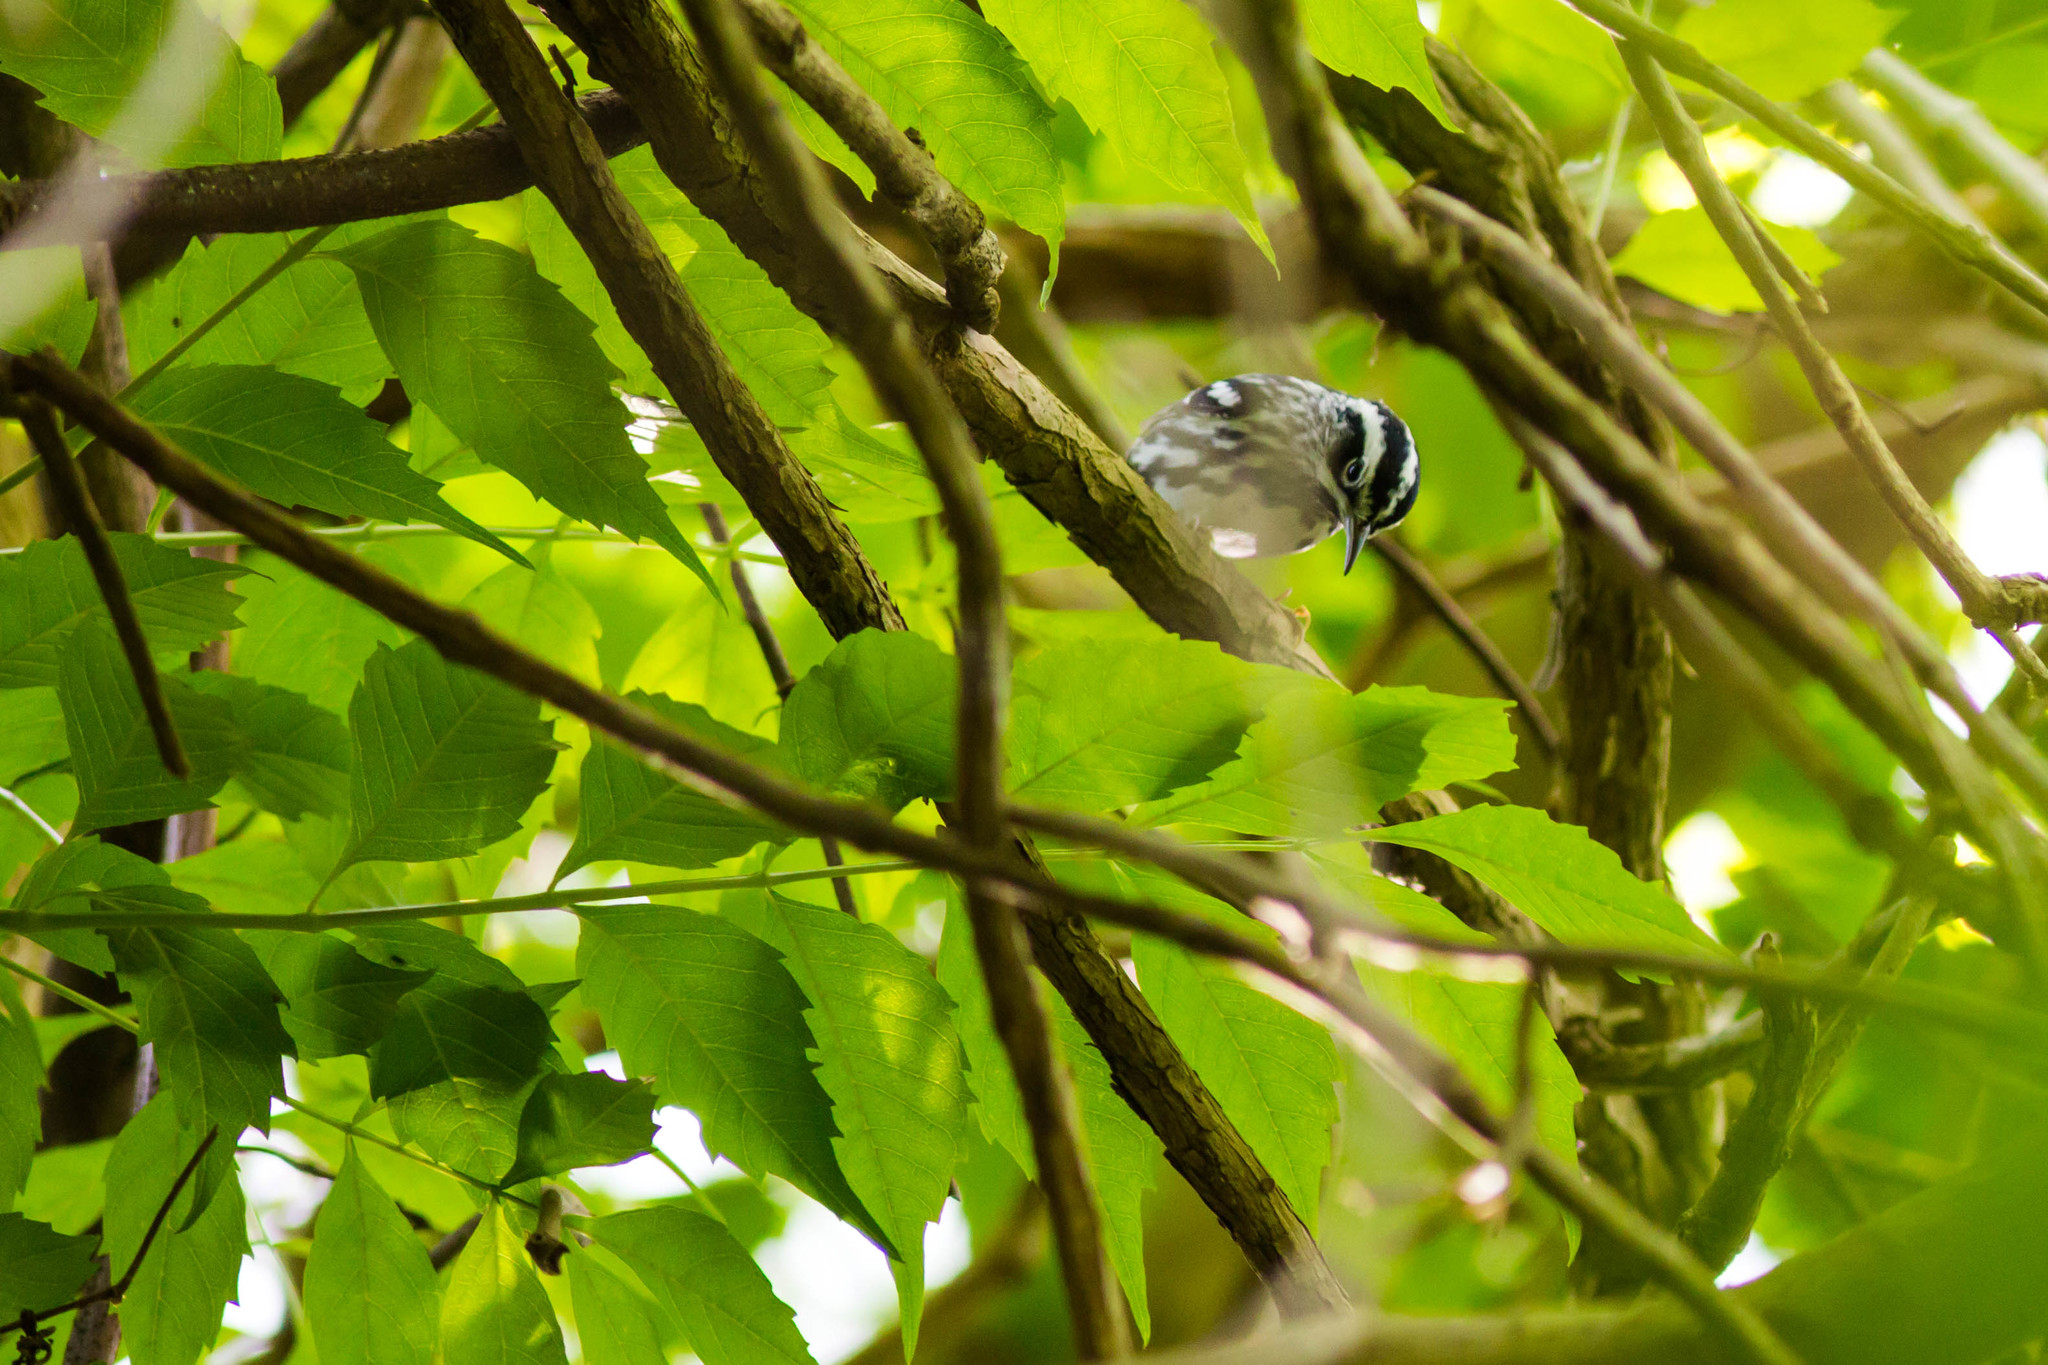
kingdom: Animalia
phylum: Chordata
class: Aves
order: Passeriformes
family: Parulidae
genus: Mniotilta
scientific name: Mniotilta varia
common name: Black-and-white warbler
